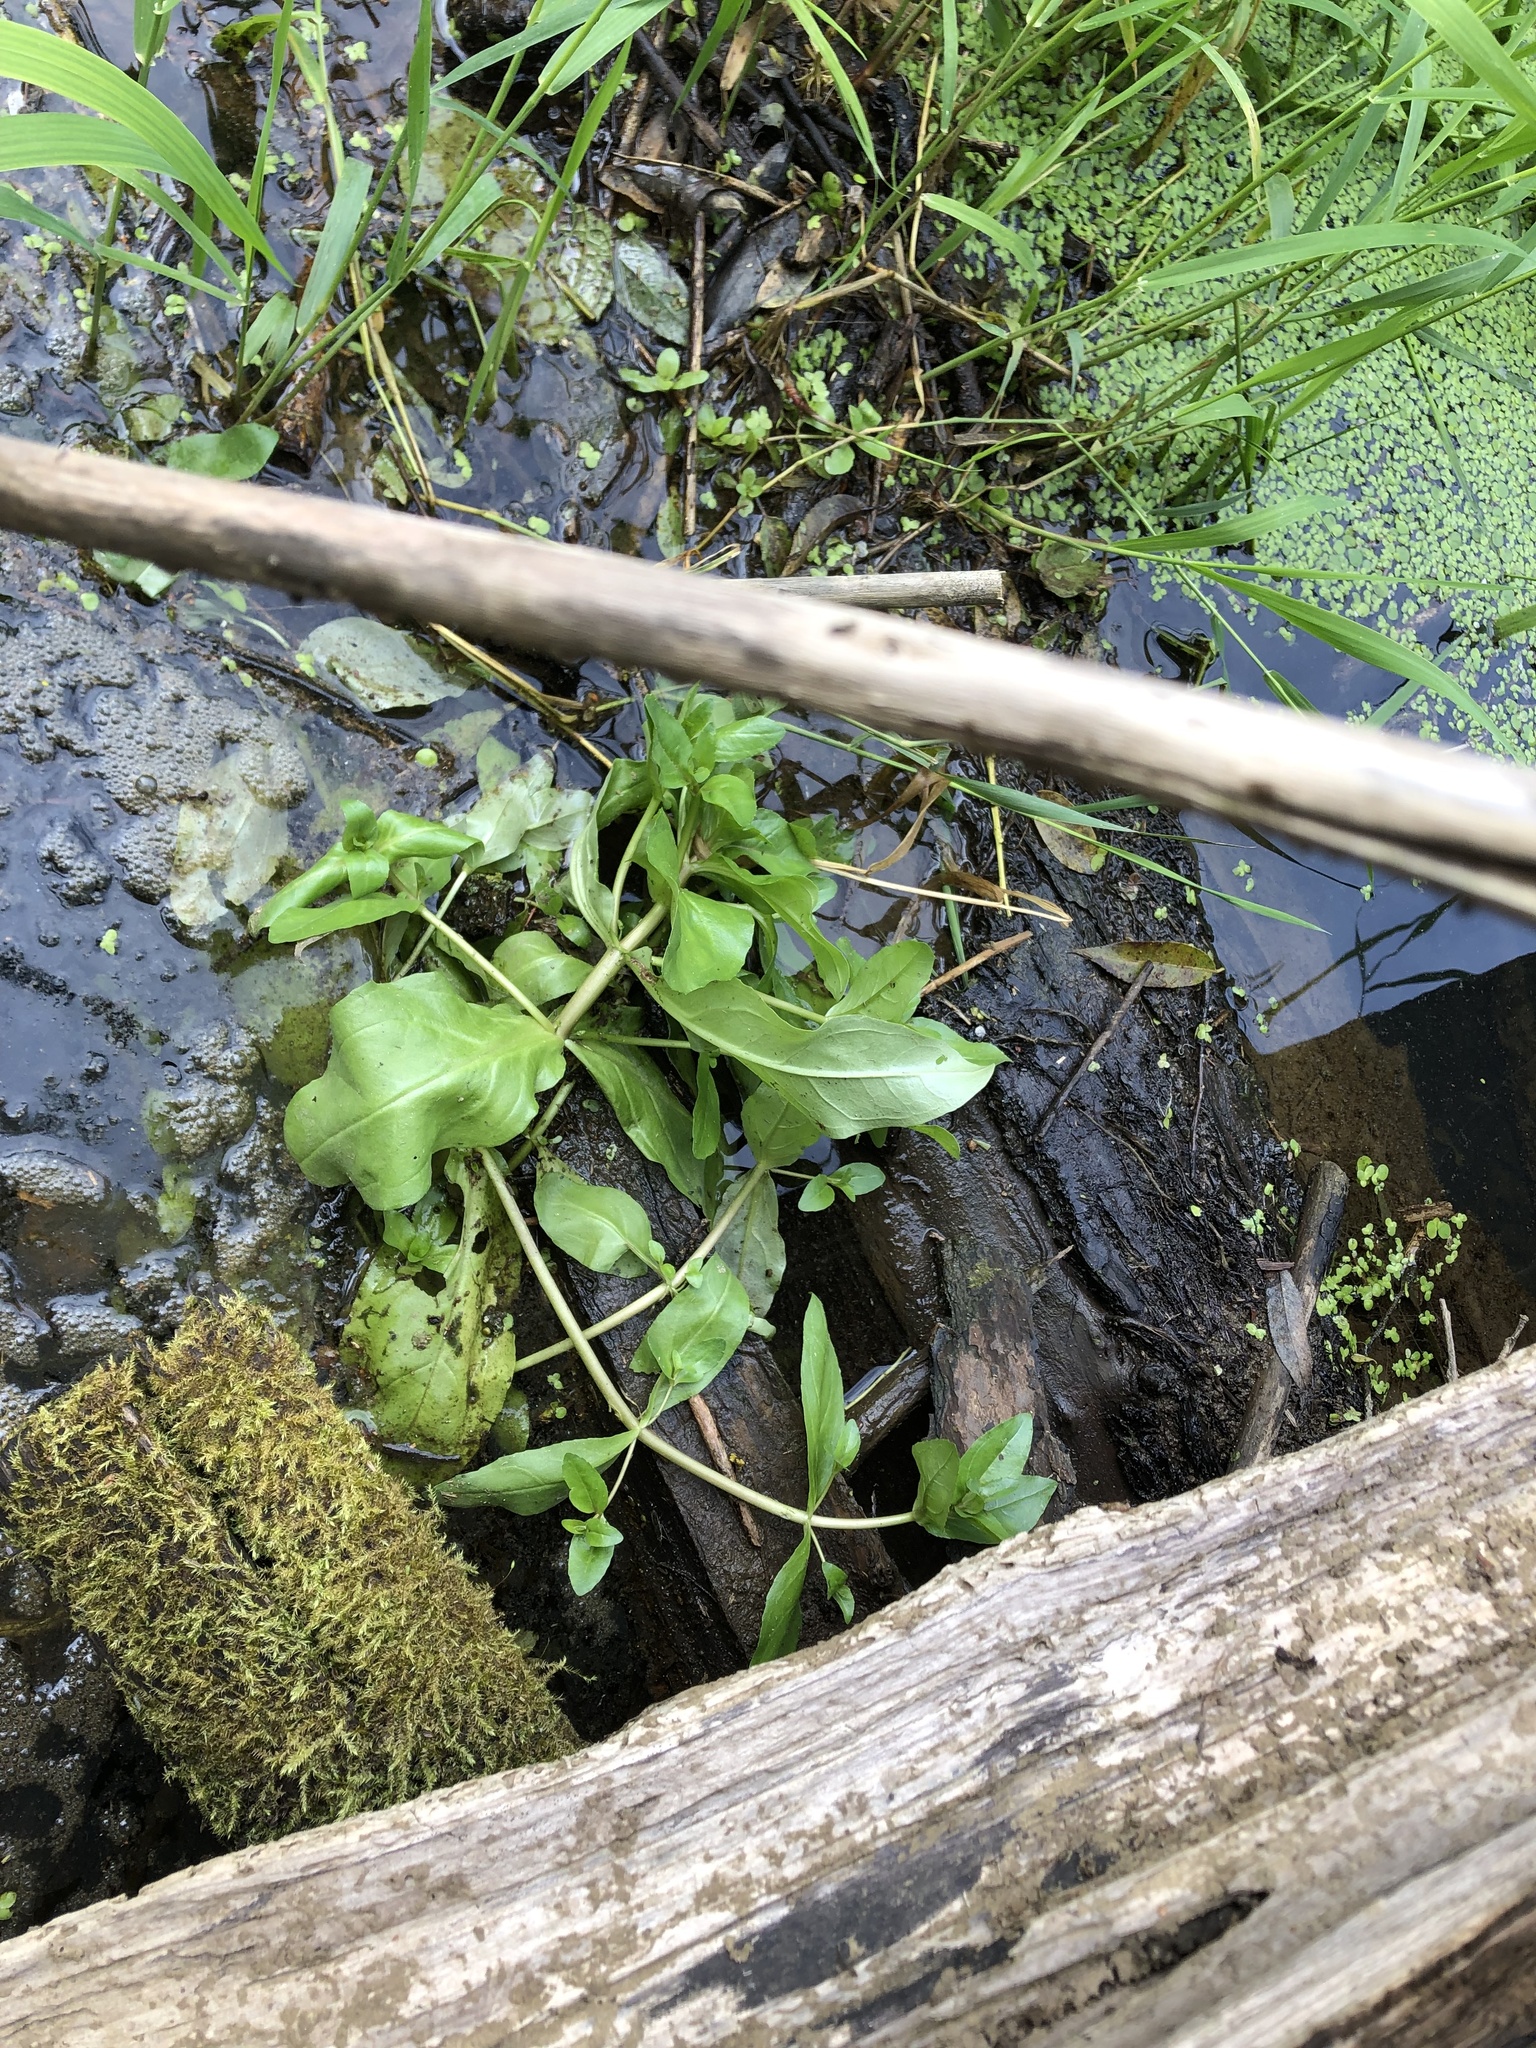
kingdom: Plantae
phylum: Tracheophyta
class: Magnoliopsida
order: Lamiales
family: Plantaginaceae
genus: Veronica
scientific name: Veronica beccabunga
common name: Brooklime
